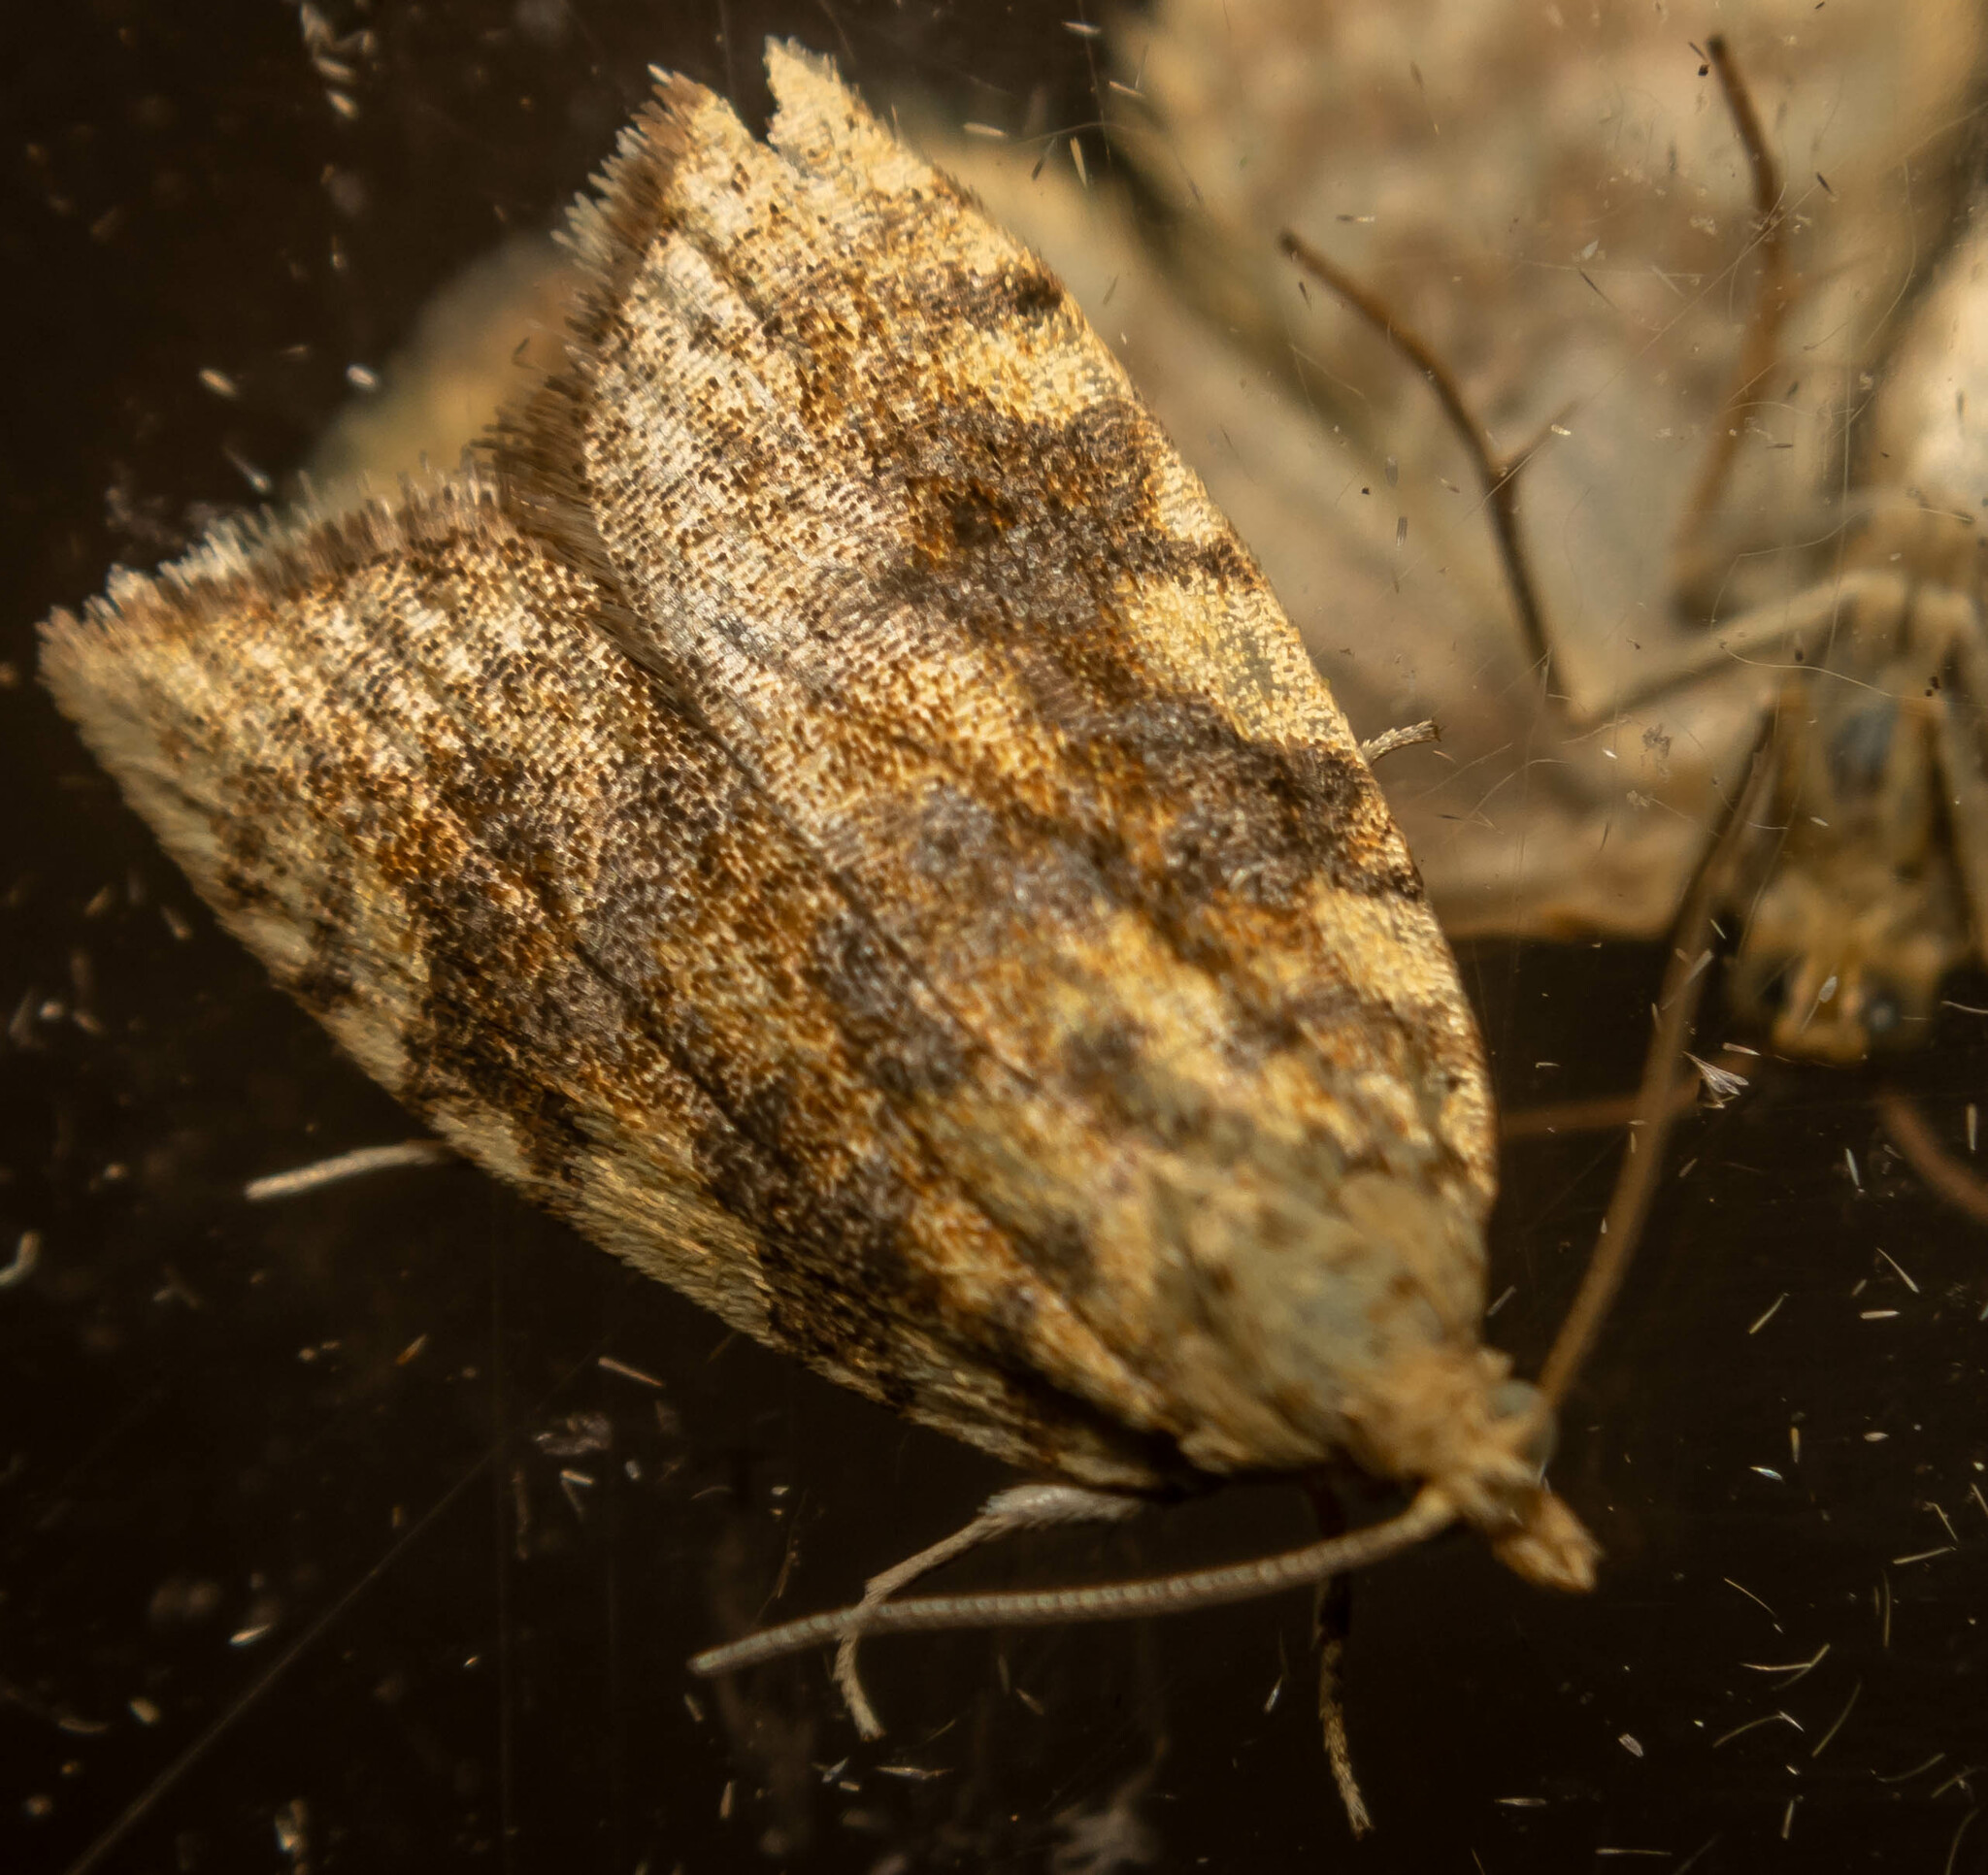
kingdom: Animalia
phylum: Arthropoda
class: Insecta
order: Lepidoptera
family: Tortricidae
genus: Aleimma
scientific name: Aleimma loeflingiana
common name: Yellow oak button
